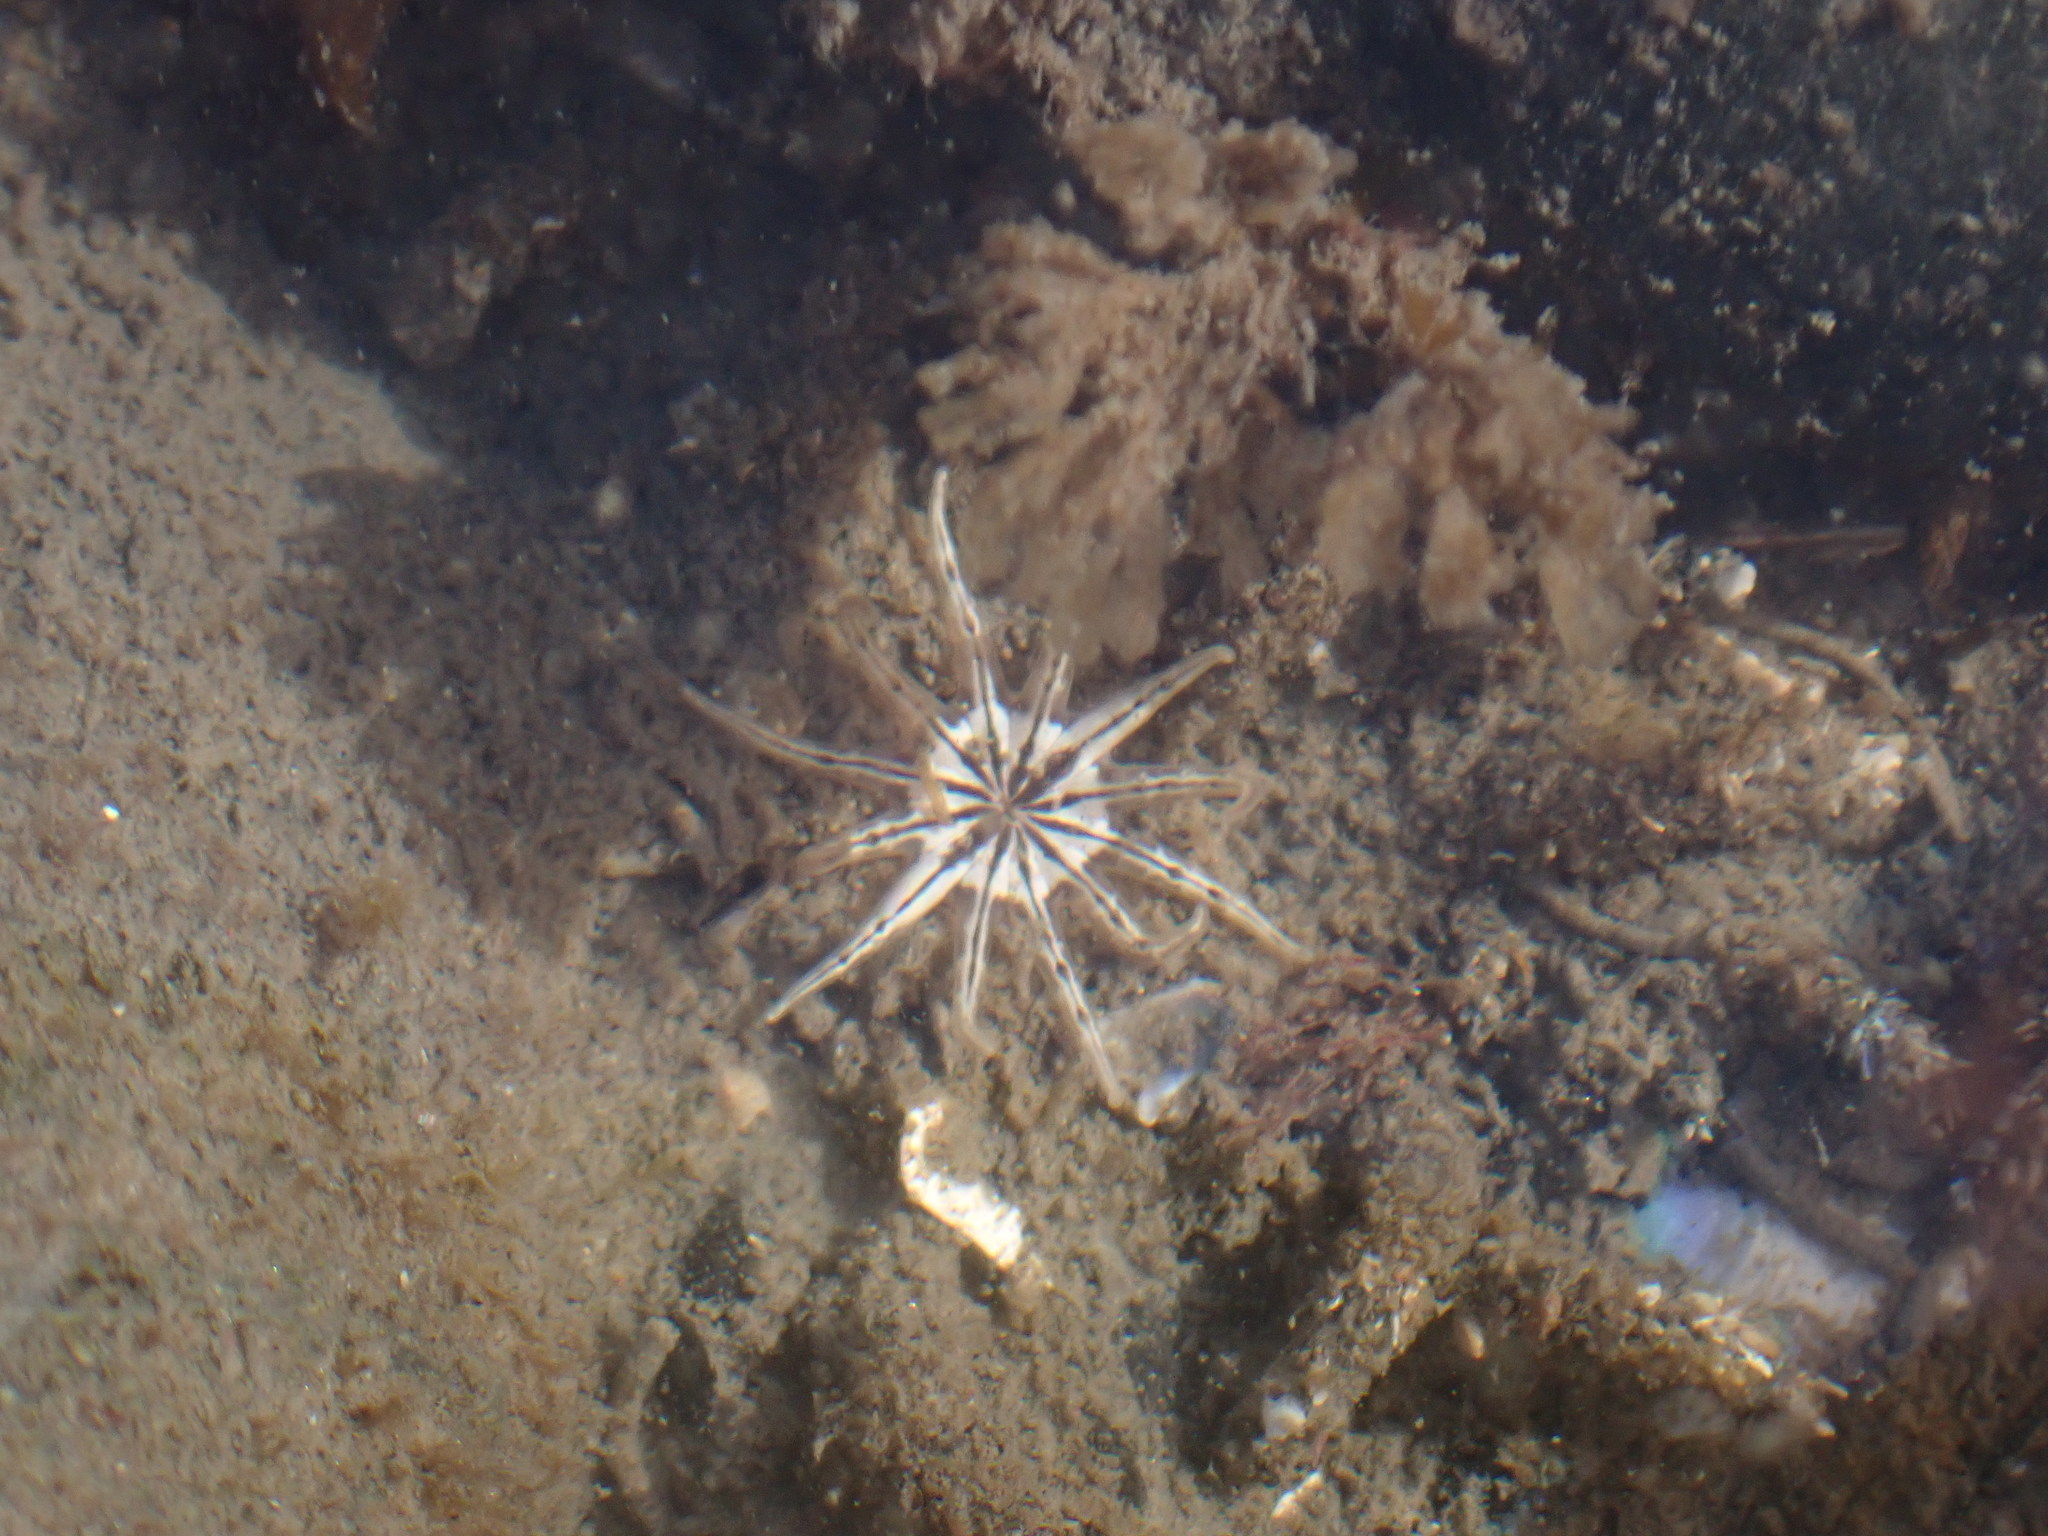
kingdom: Animalia
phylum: Cnidaria
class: Anthozoa
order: Actiniaria
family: Halcampidae
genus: Halcampa
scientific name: Halcampa crypta
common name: Cryptic burrowing anemone
